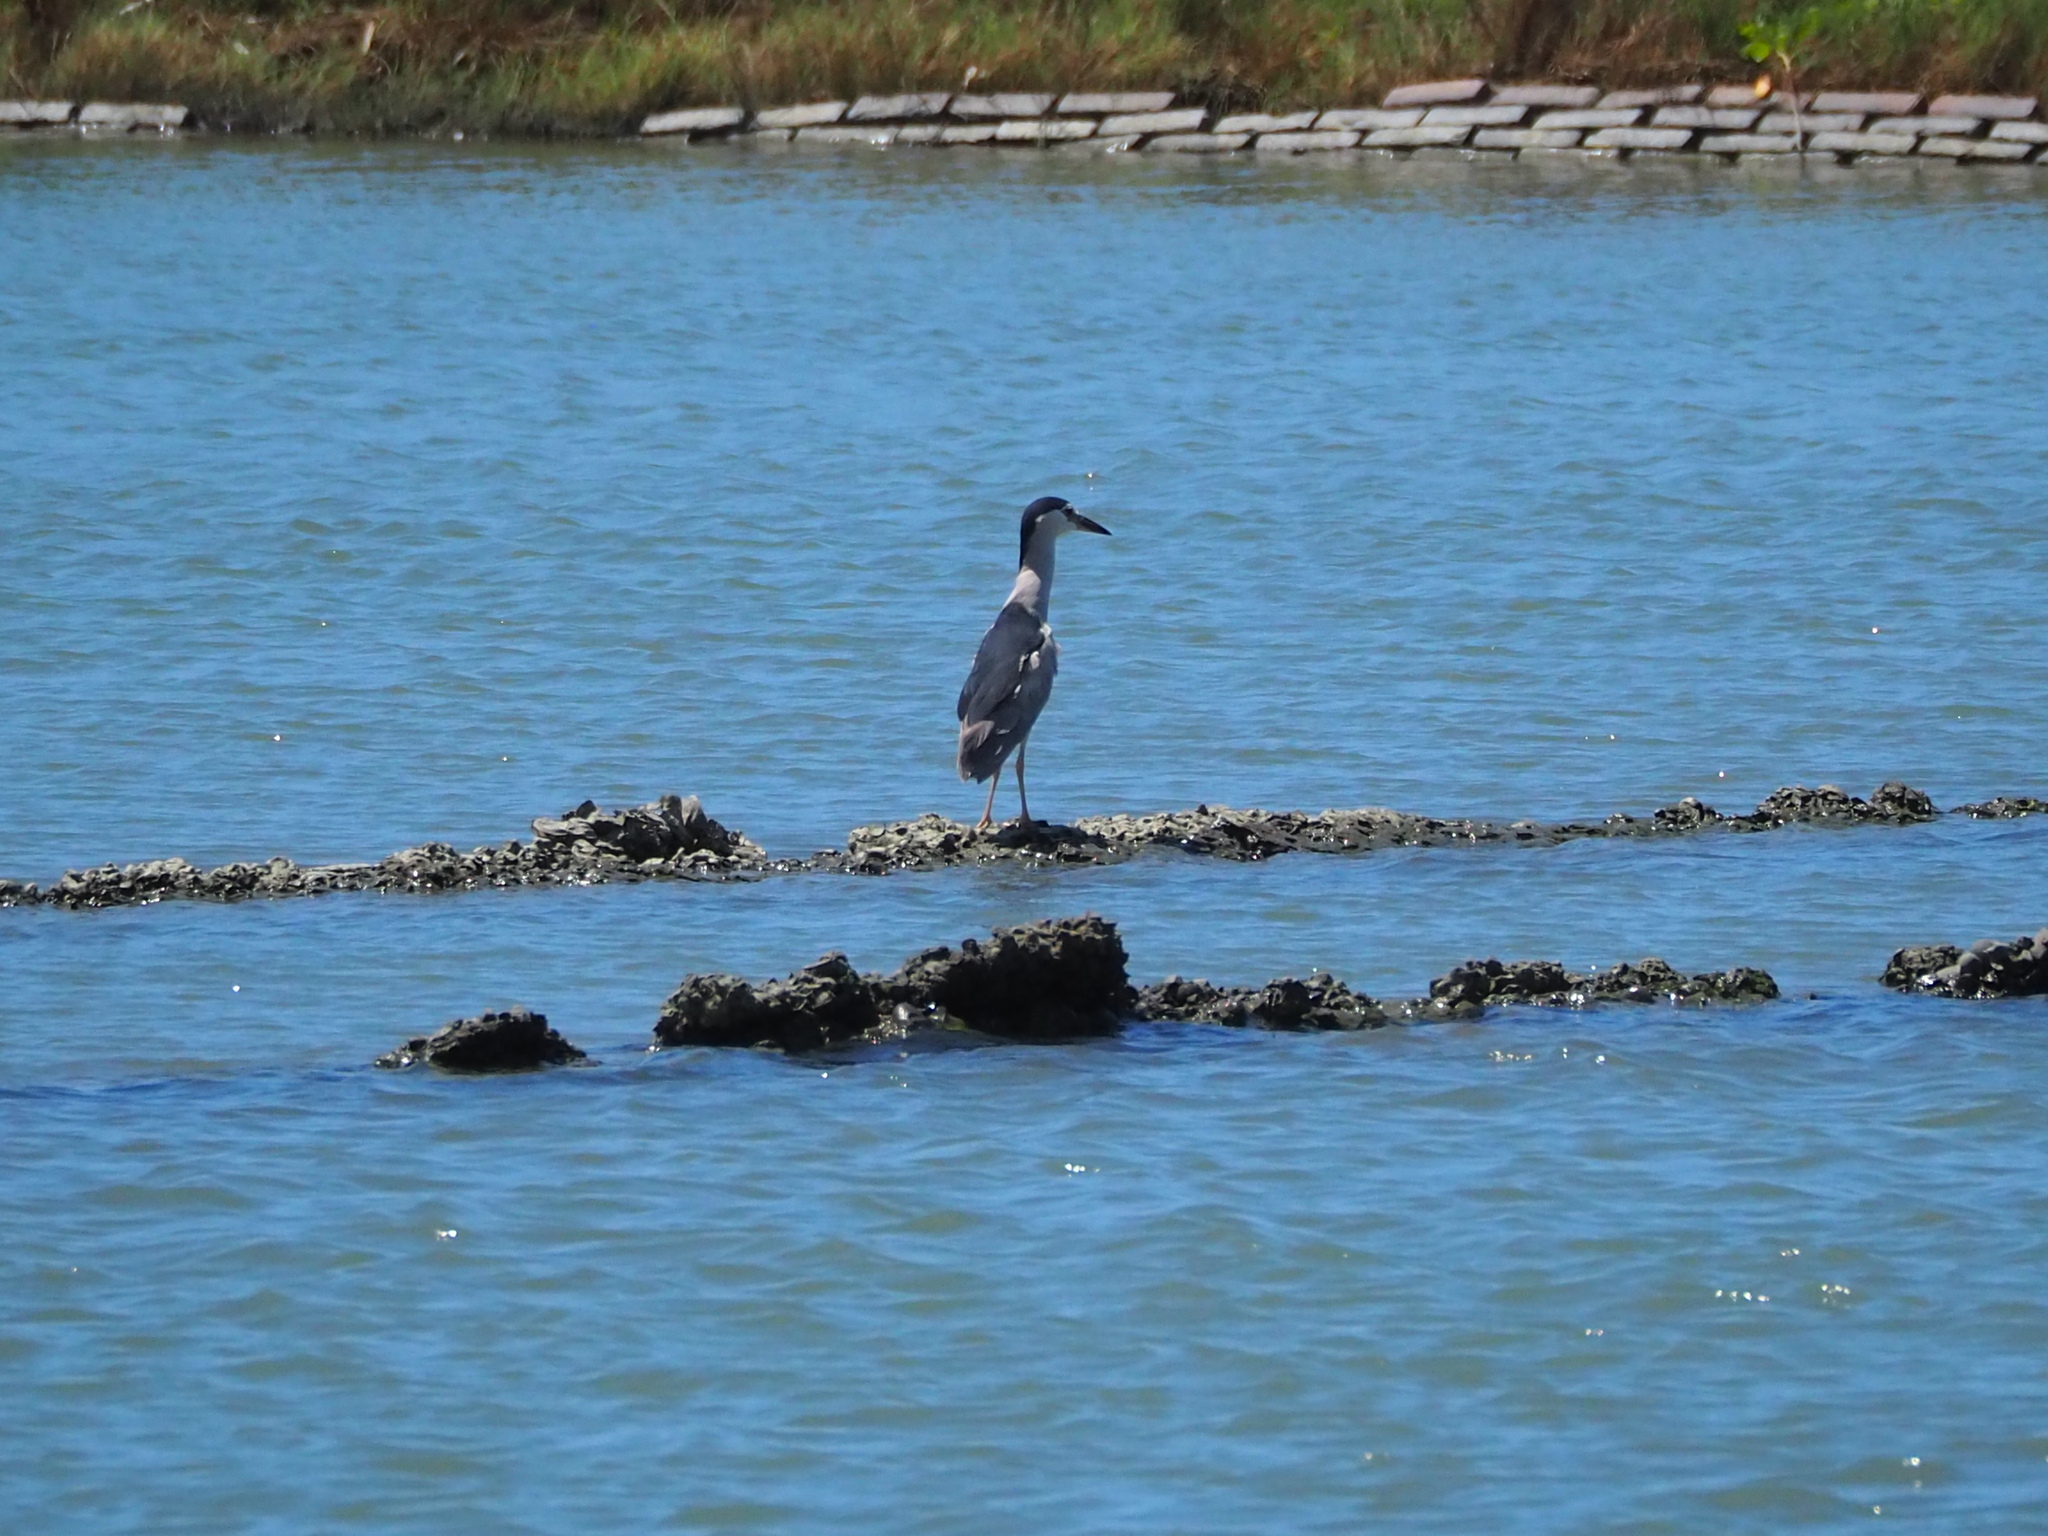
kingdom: Animalia
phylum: Chordata
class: Aves
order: Pelecaniformes
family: Ardeidae
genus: Nycticorax
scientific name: Nycticorax nycticorax
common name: Black-crowned night heron
